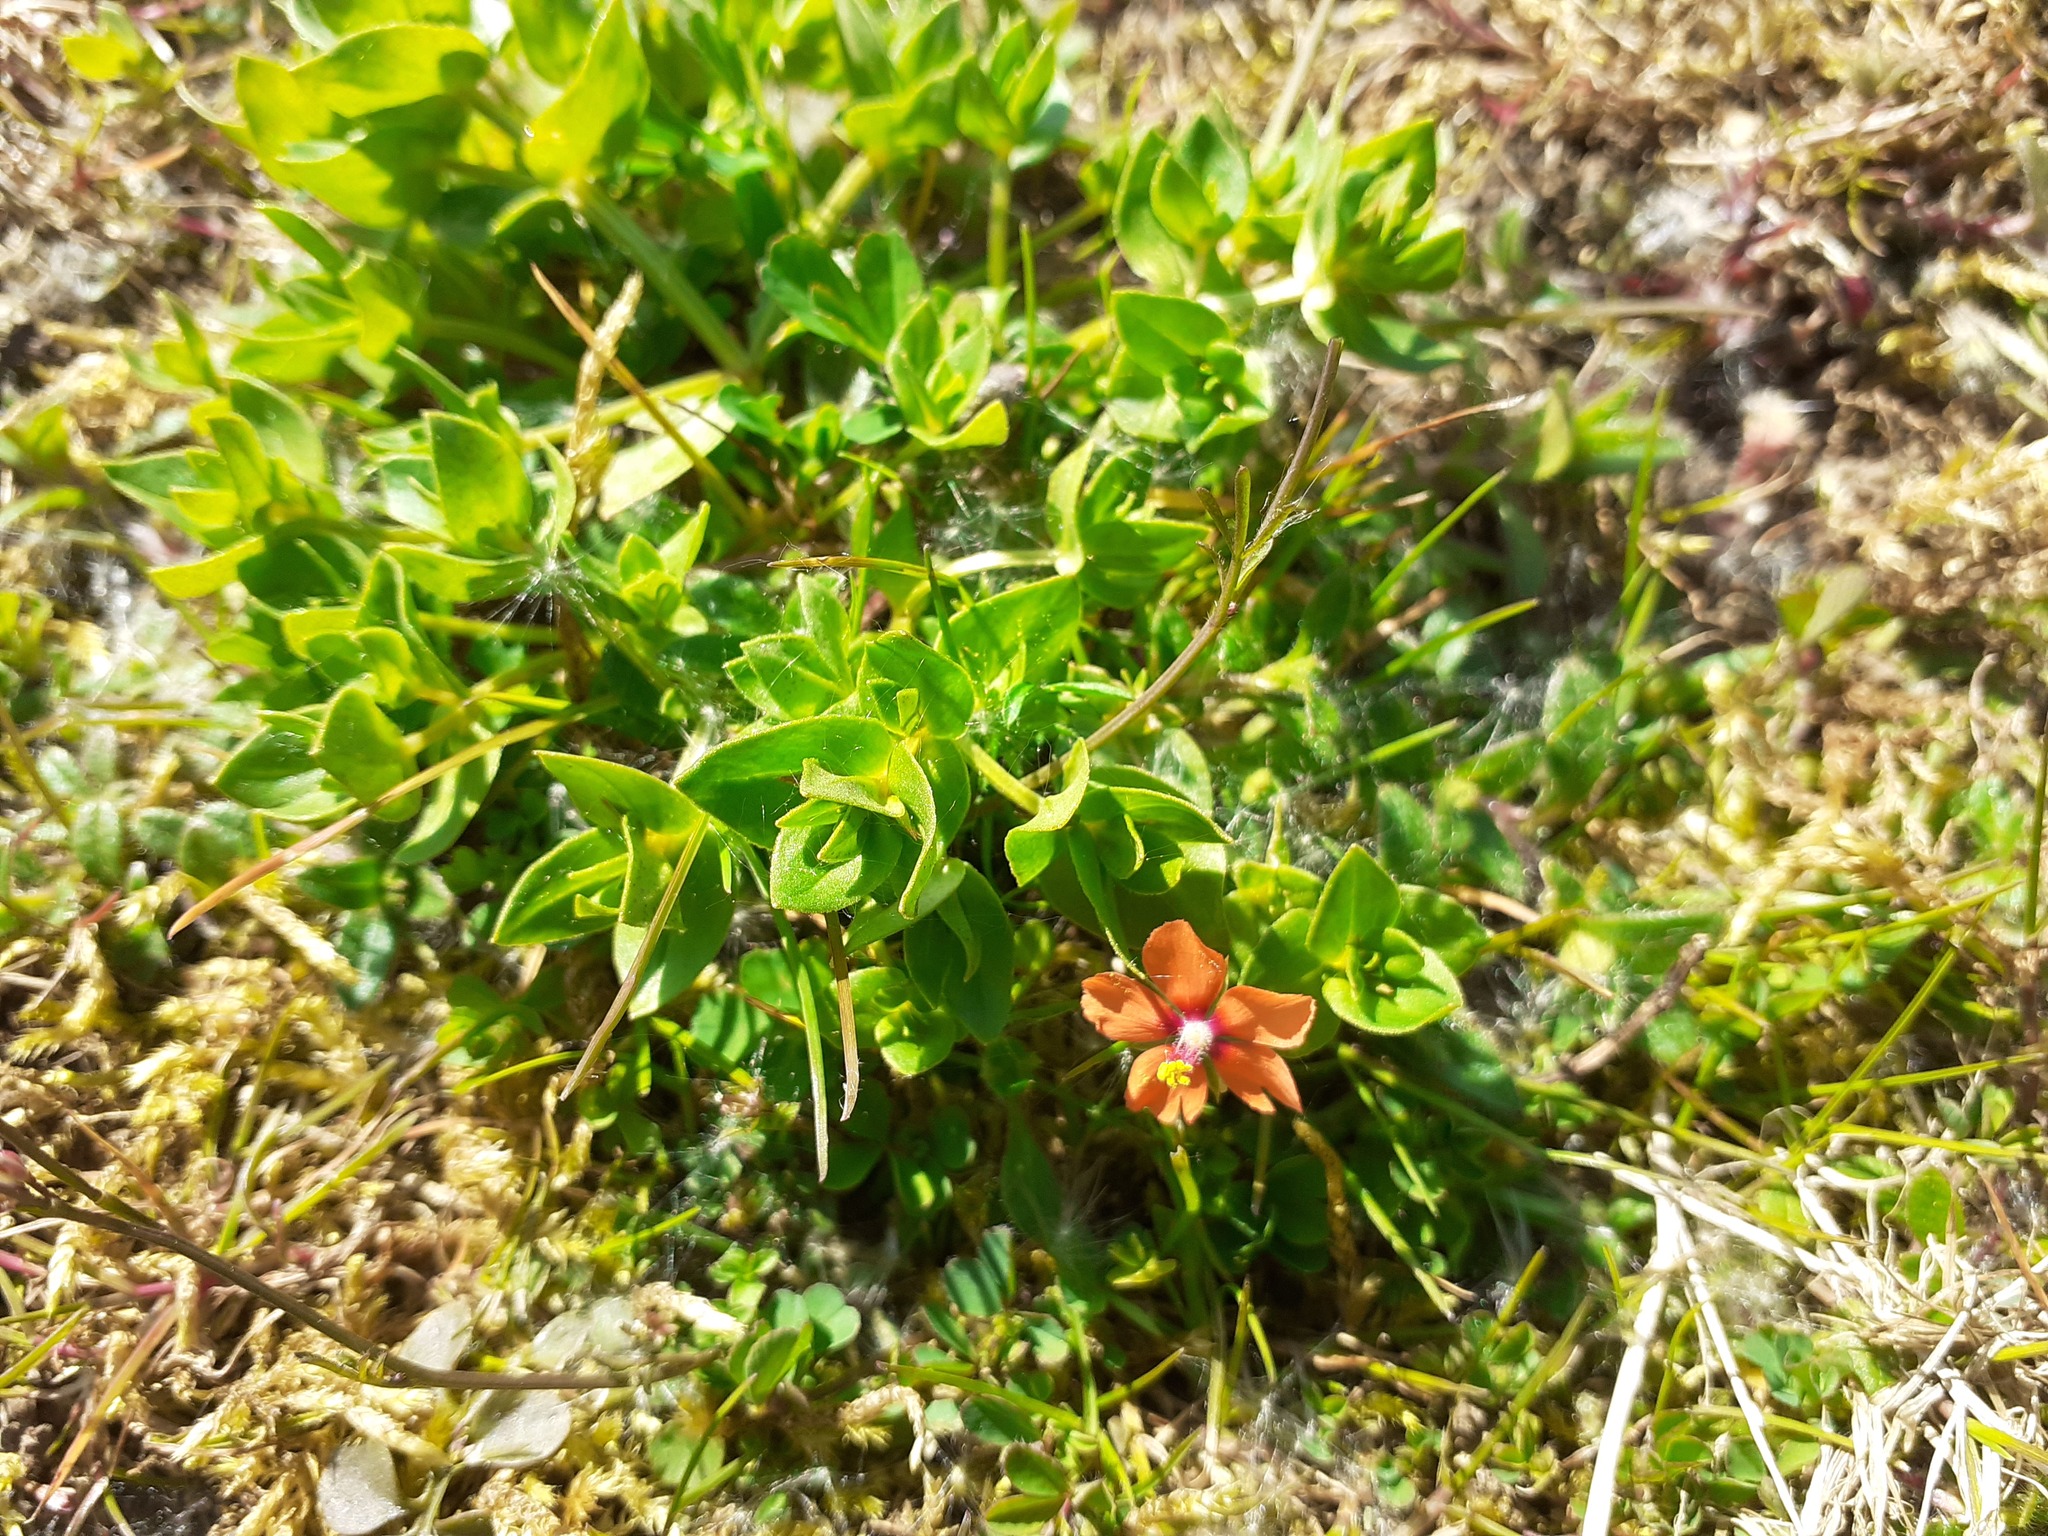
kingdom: Plantae
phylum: Tracheophyta
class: Magnoliopsida
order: Ericales
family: Primulaceae
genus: Lysimachia
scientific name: Lysimachia arvensis
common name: Scarlet pimpernel
